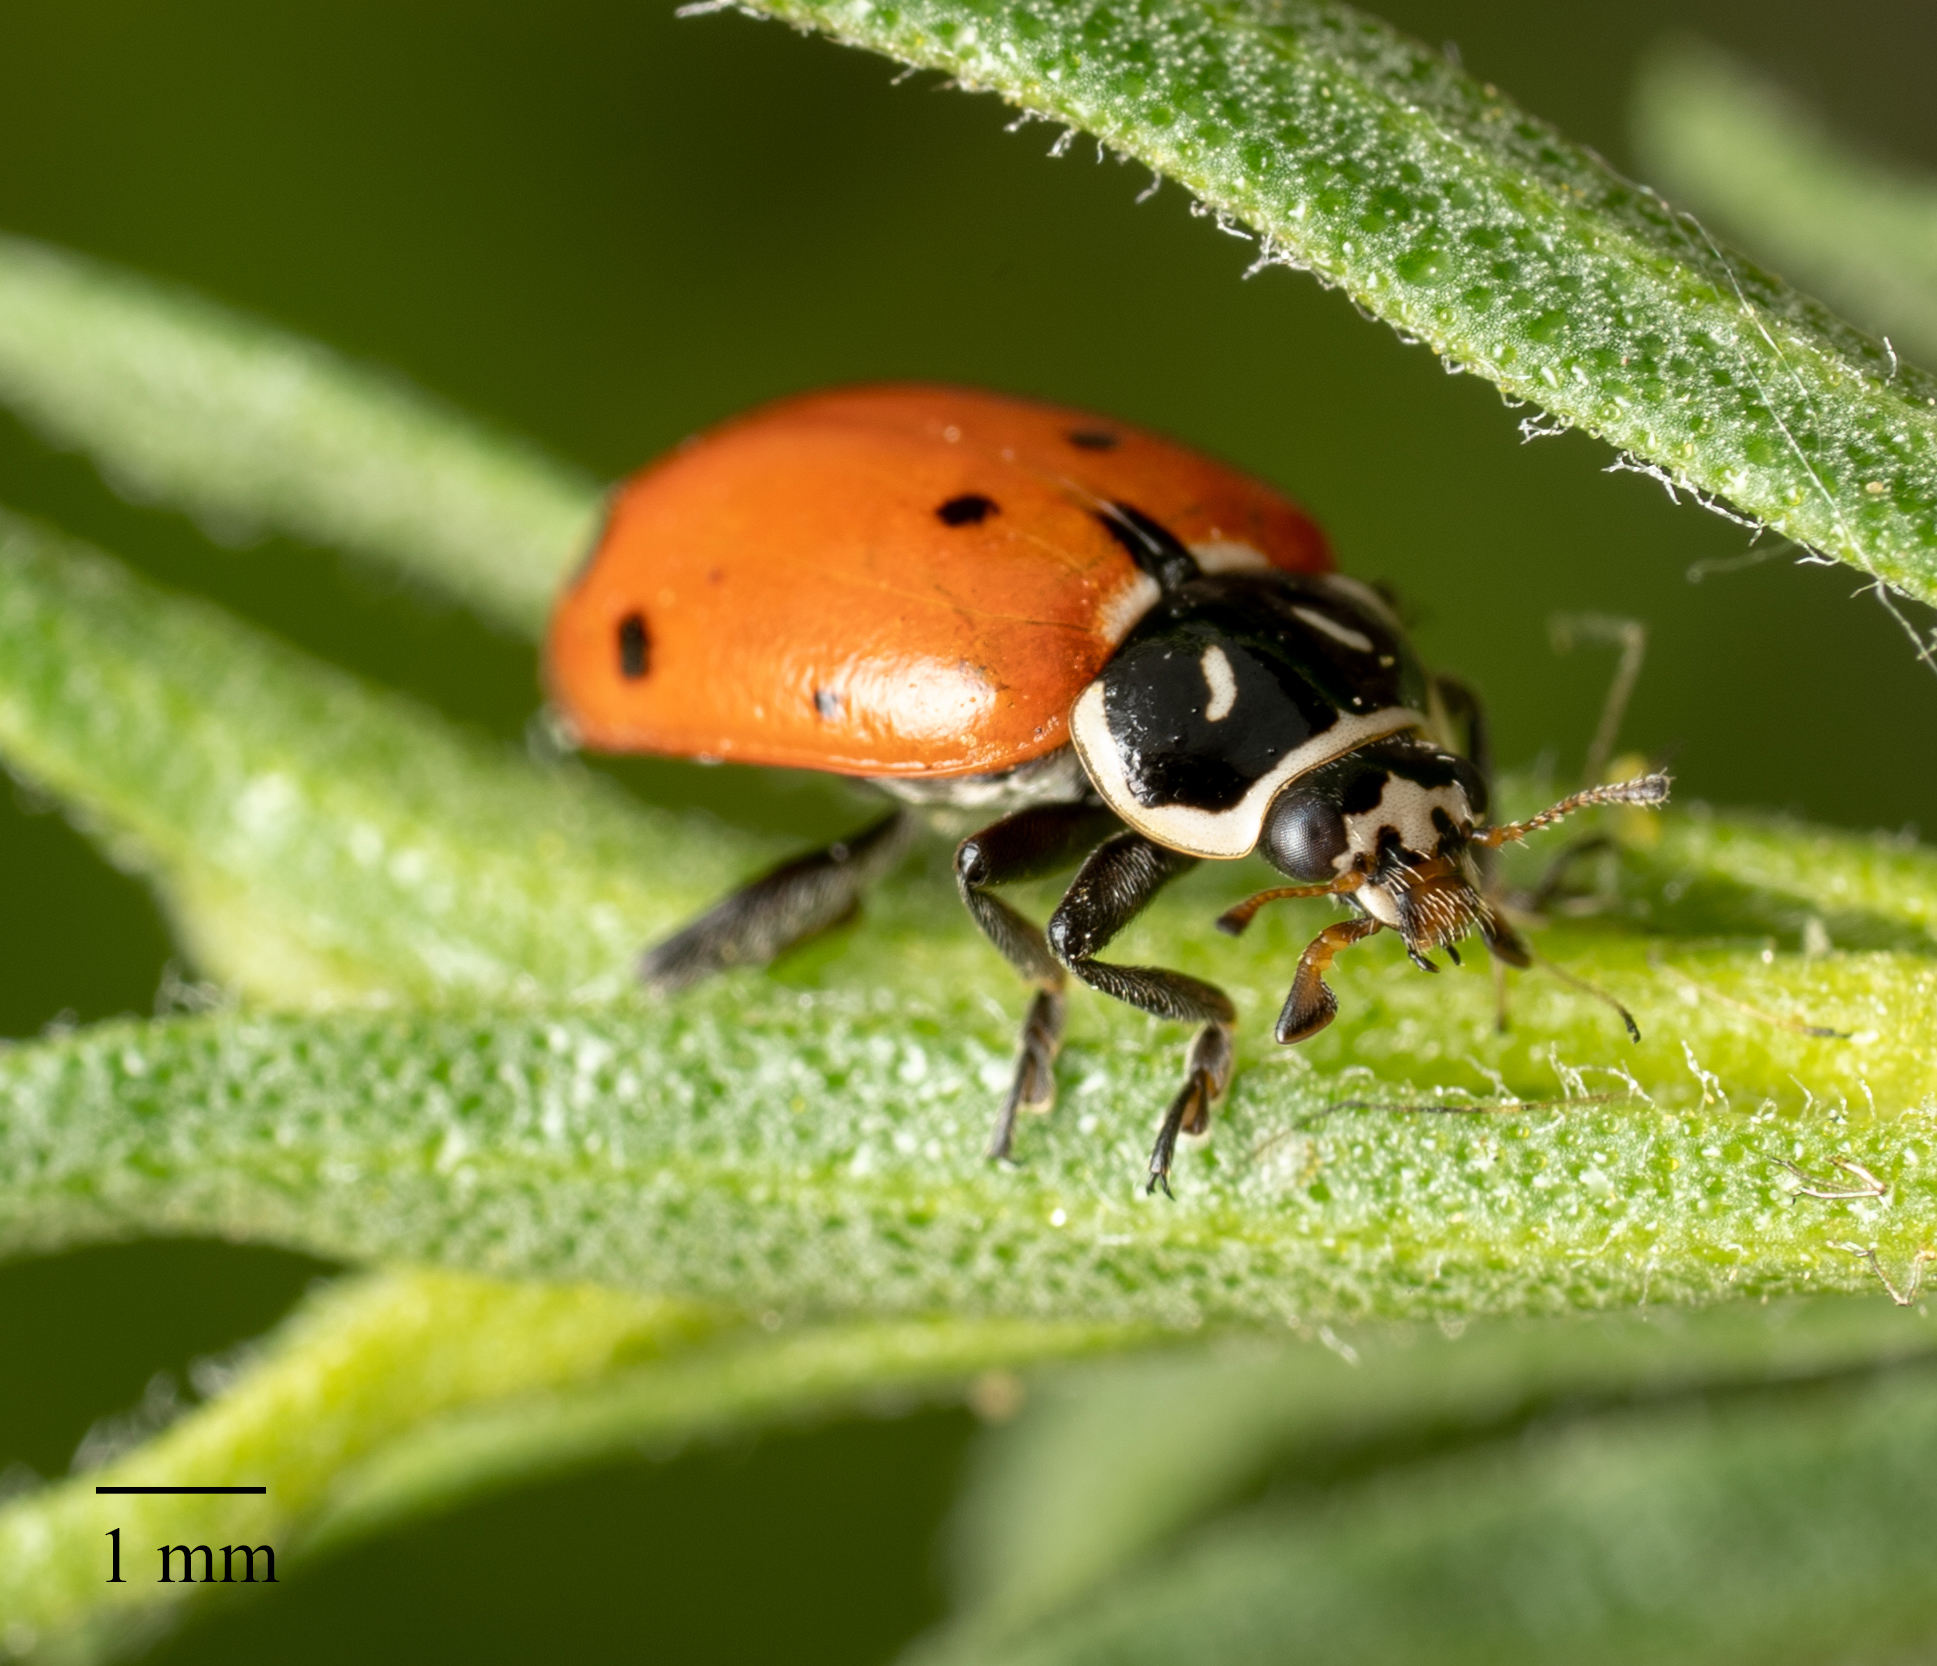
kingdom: Animalia
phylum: Arthropoda
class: Insecta
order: Coleoptera
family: Coccinellidae
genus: Hippodamia
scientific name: Hippodamia convergens
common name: Convergent lady beetle
